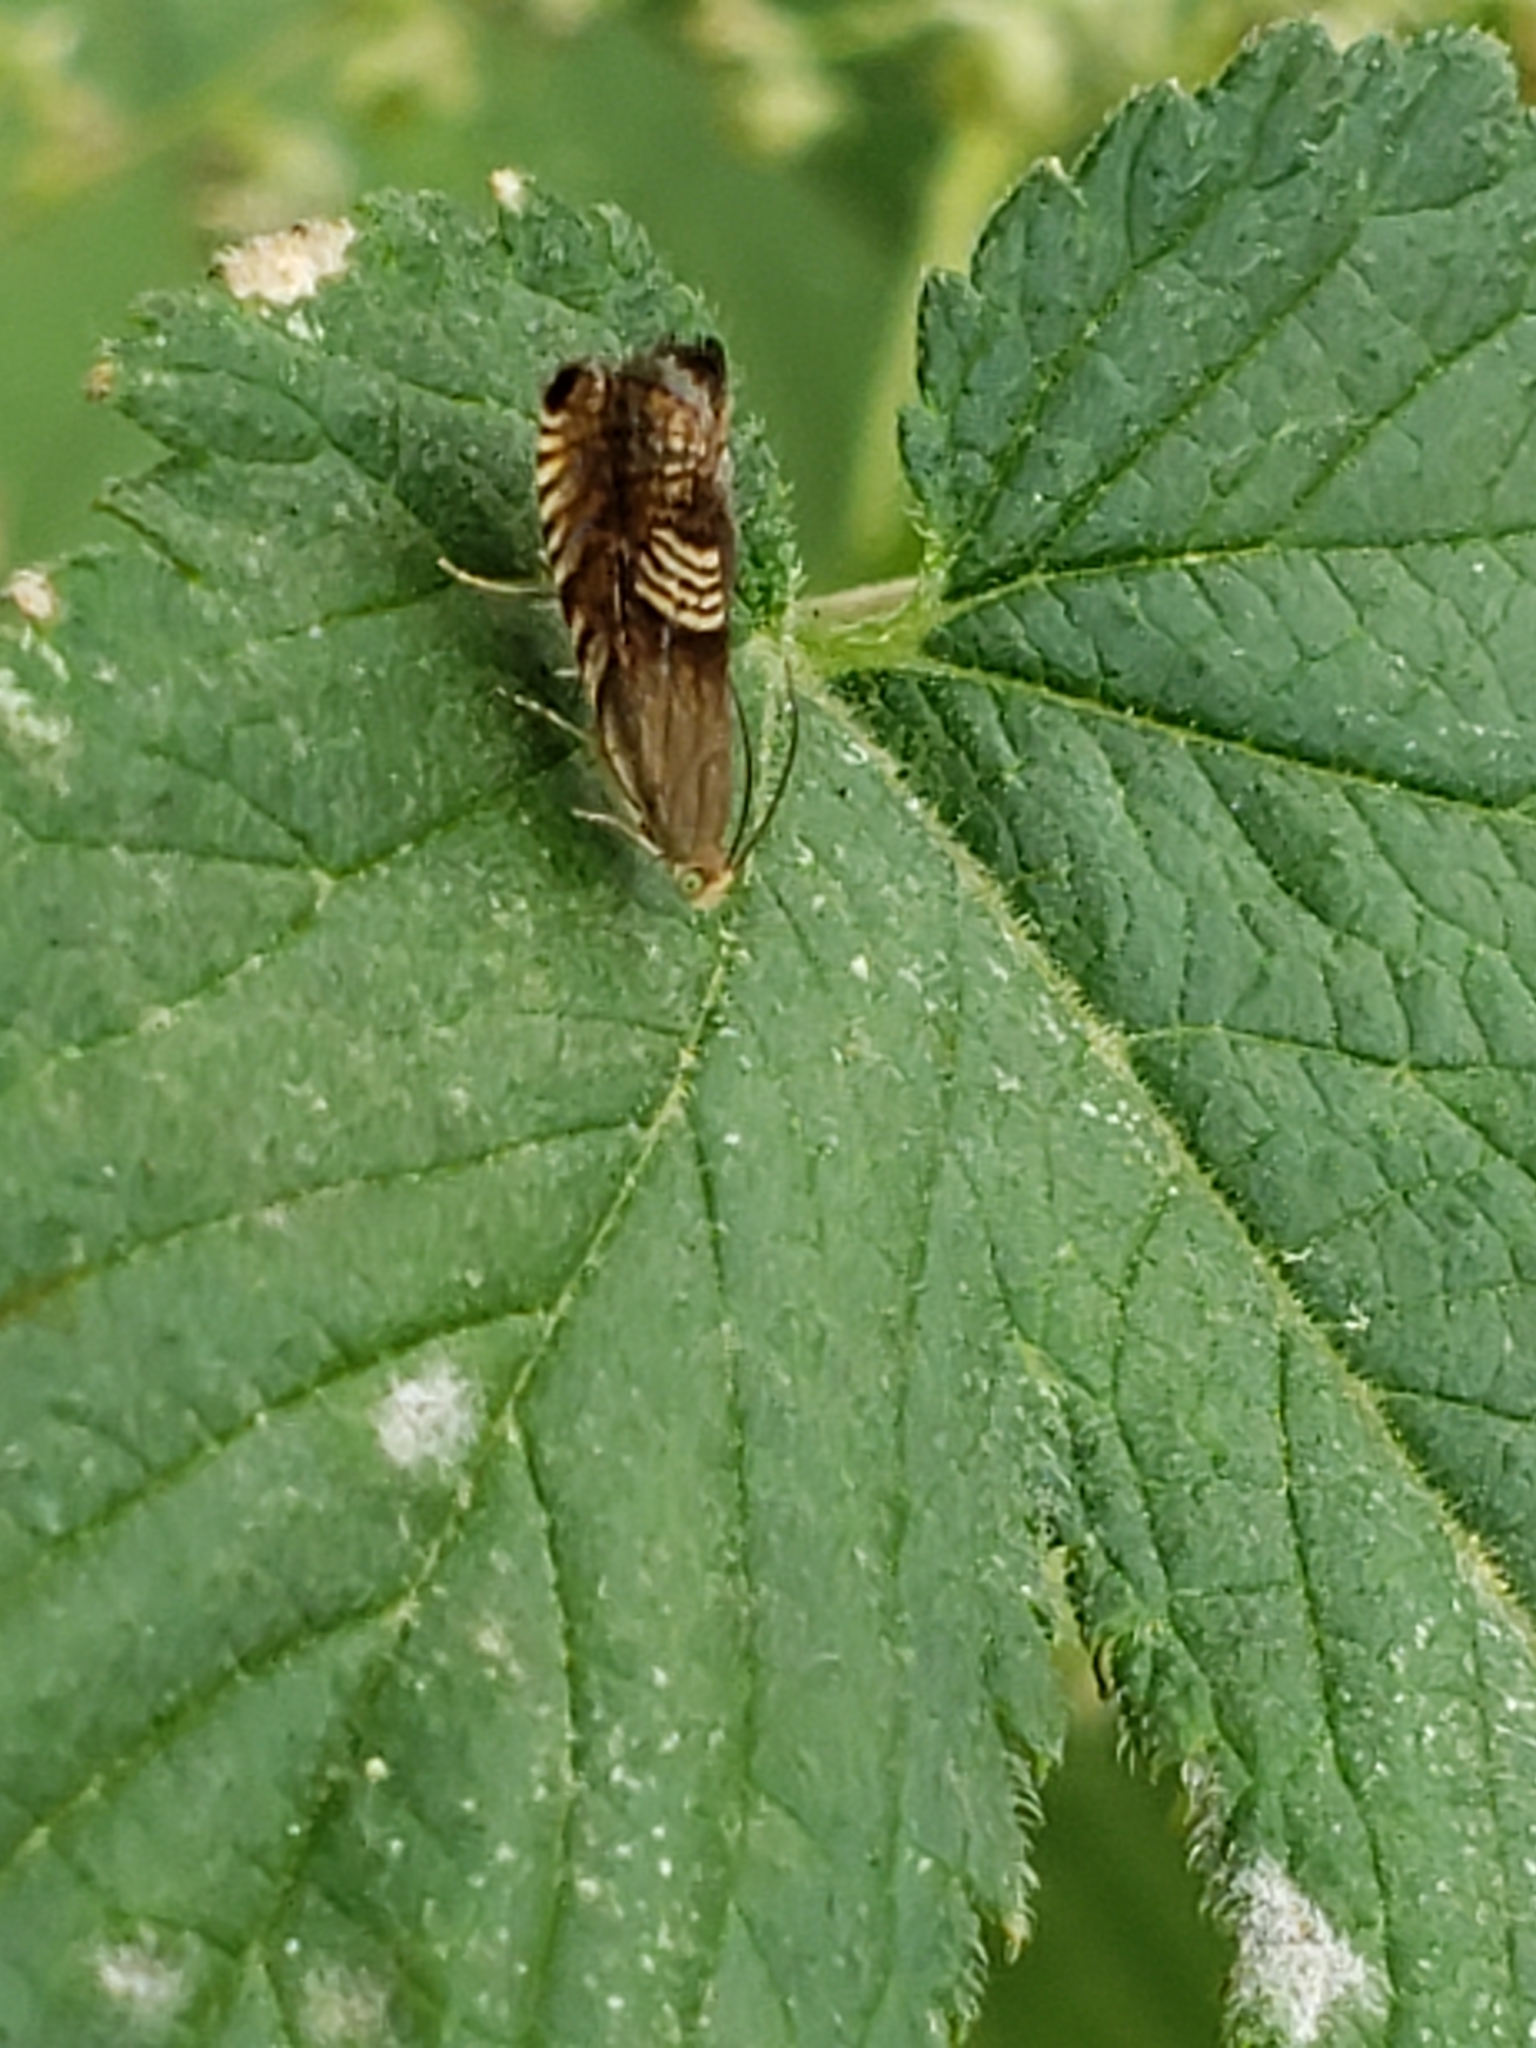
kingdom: Animalia
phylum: Arthropoda
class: Insecta
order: Lepidoptera
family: Tortricidae
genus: Grapholita
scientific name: Grapholita tristrigana
